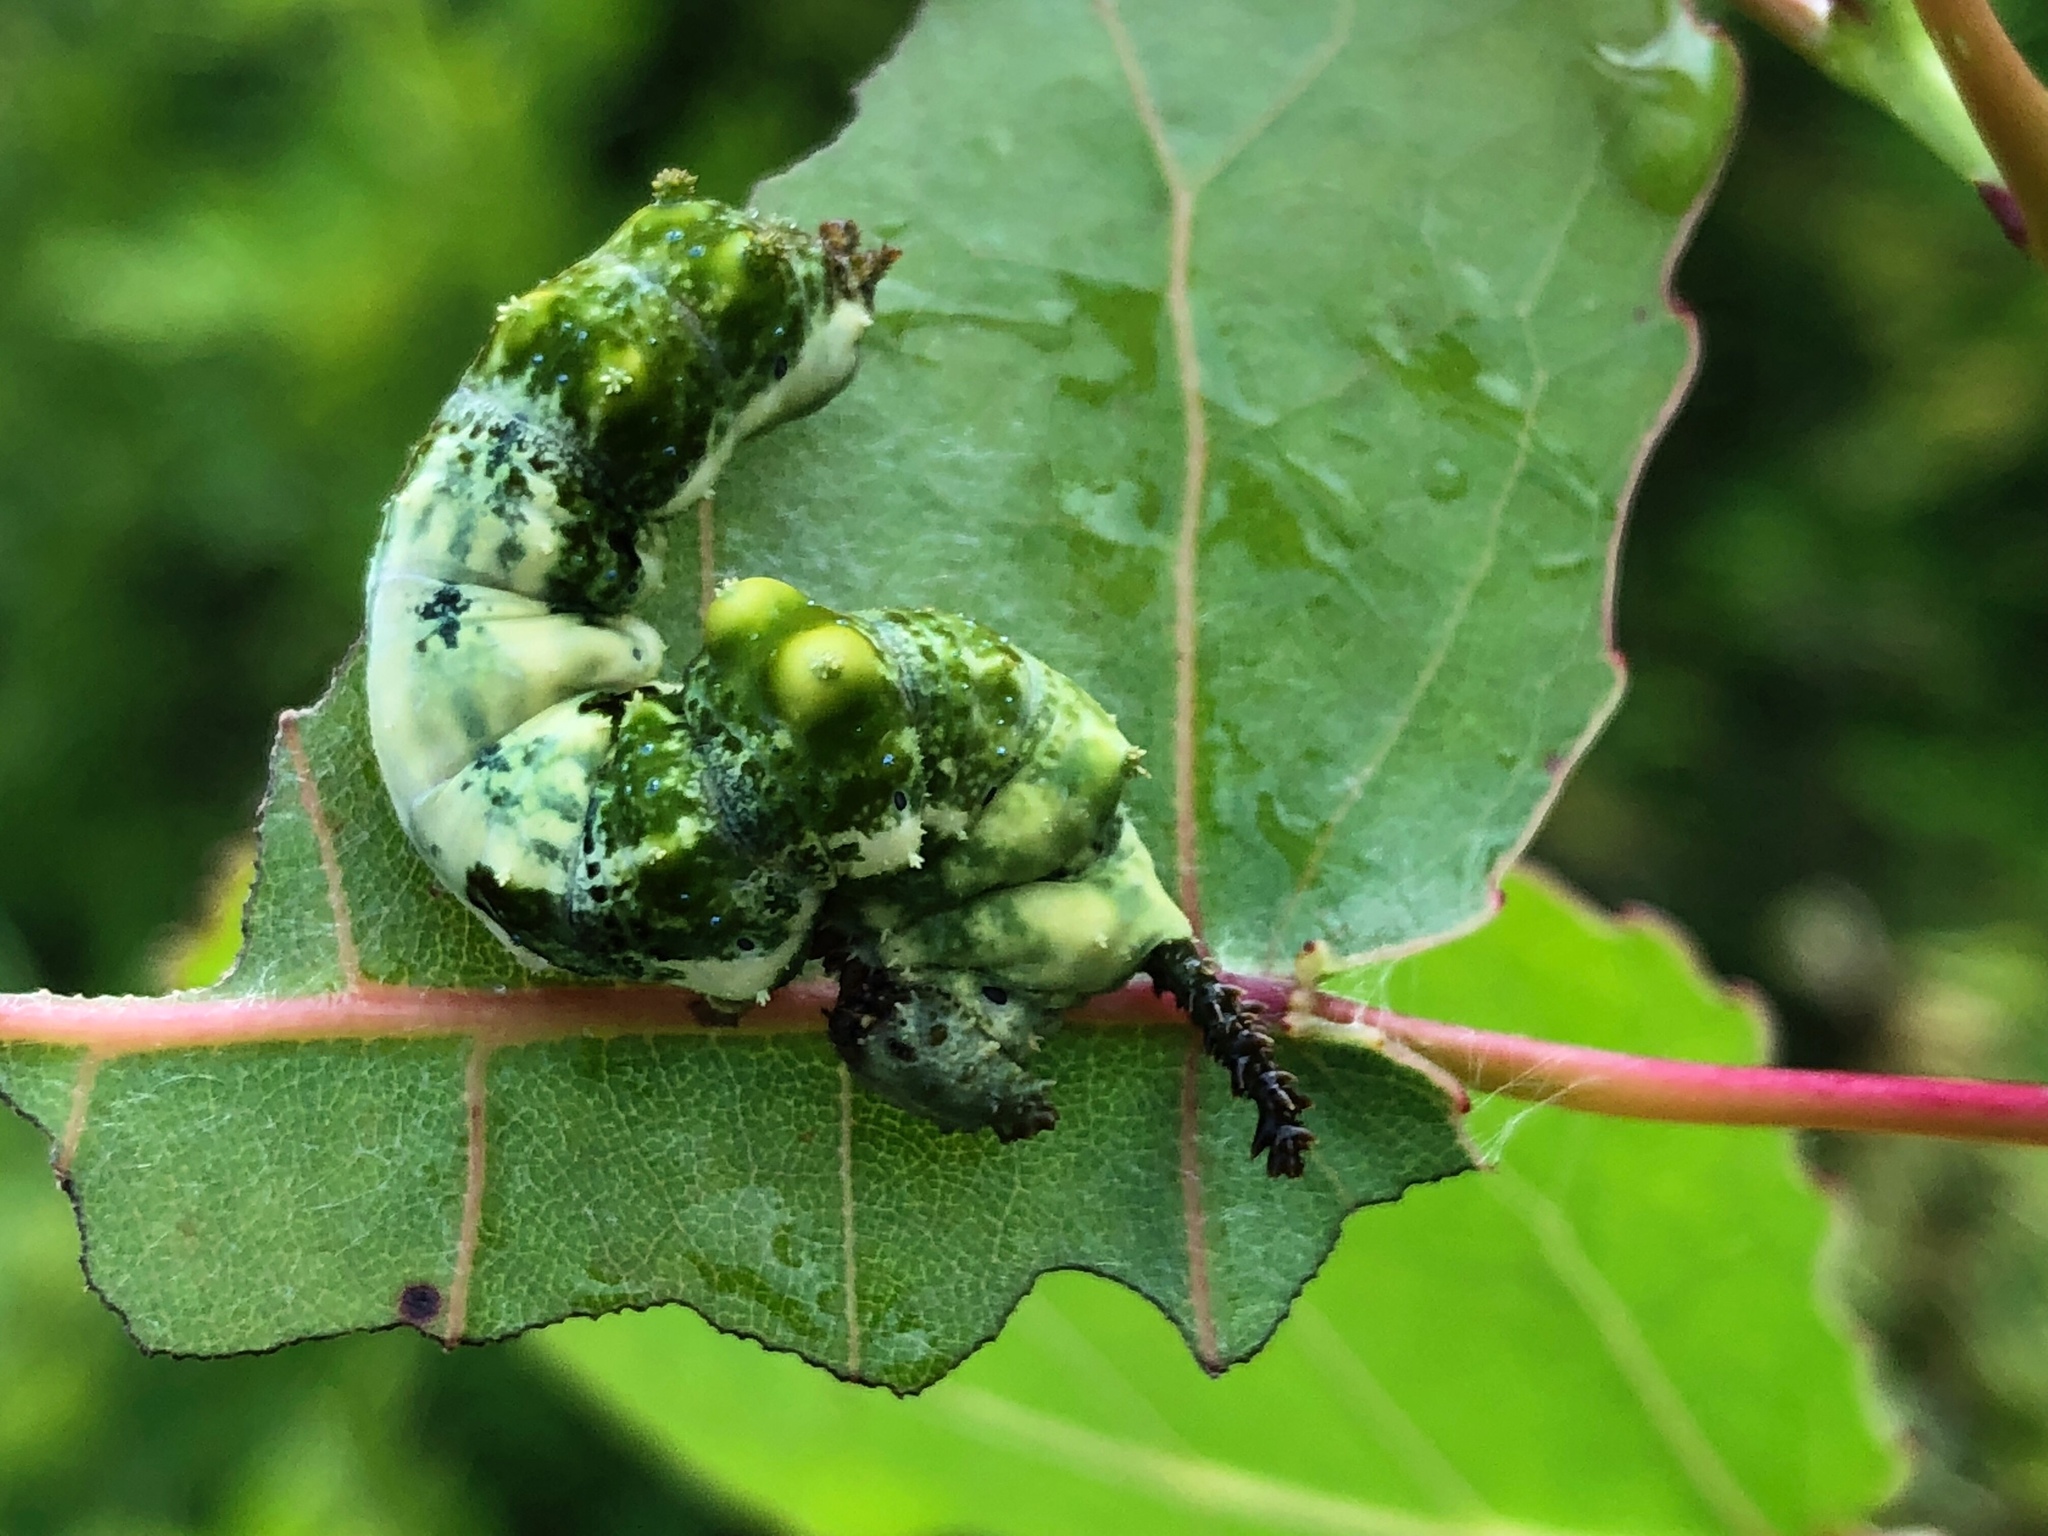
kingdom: Animalia
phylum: Arthropoda
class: Insecta
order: Lepidoptera
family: Nymphalidae
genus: Limenitis
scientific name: Limenitis archippus
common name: Viceroy
